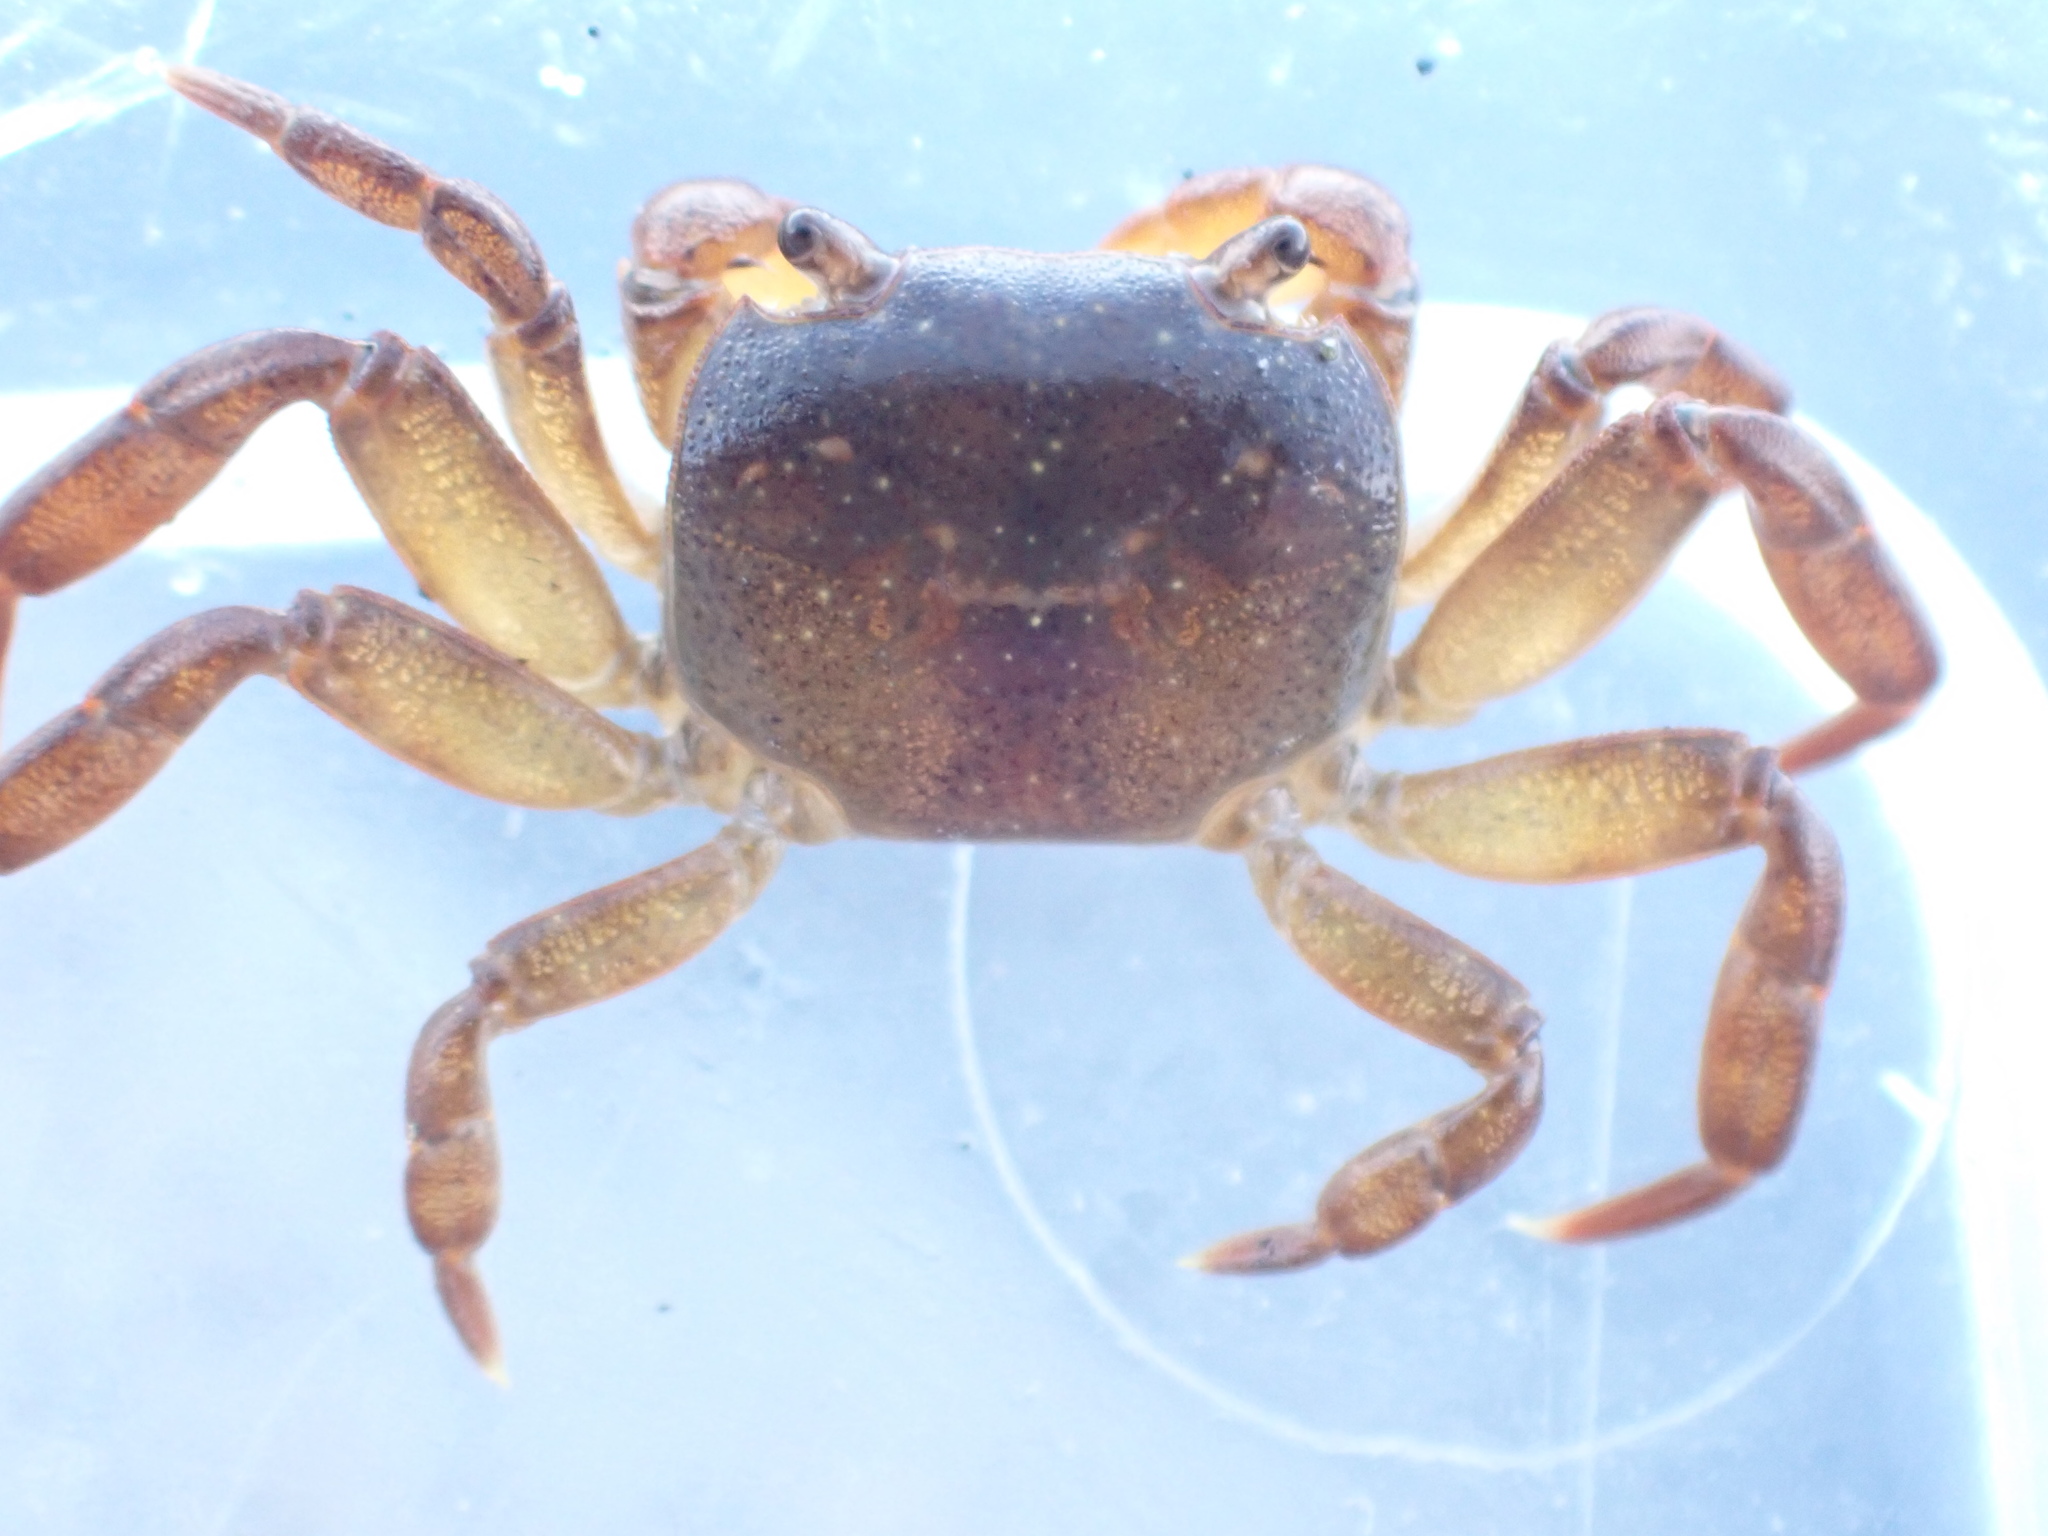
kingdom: Animalia
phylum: Arthropoda
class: Malacostraca
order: Decapoda
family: Varunidae
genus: Cyclograpsus
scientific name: Cyclograpsus lavauxi
